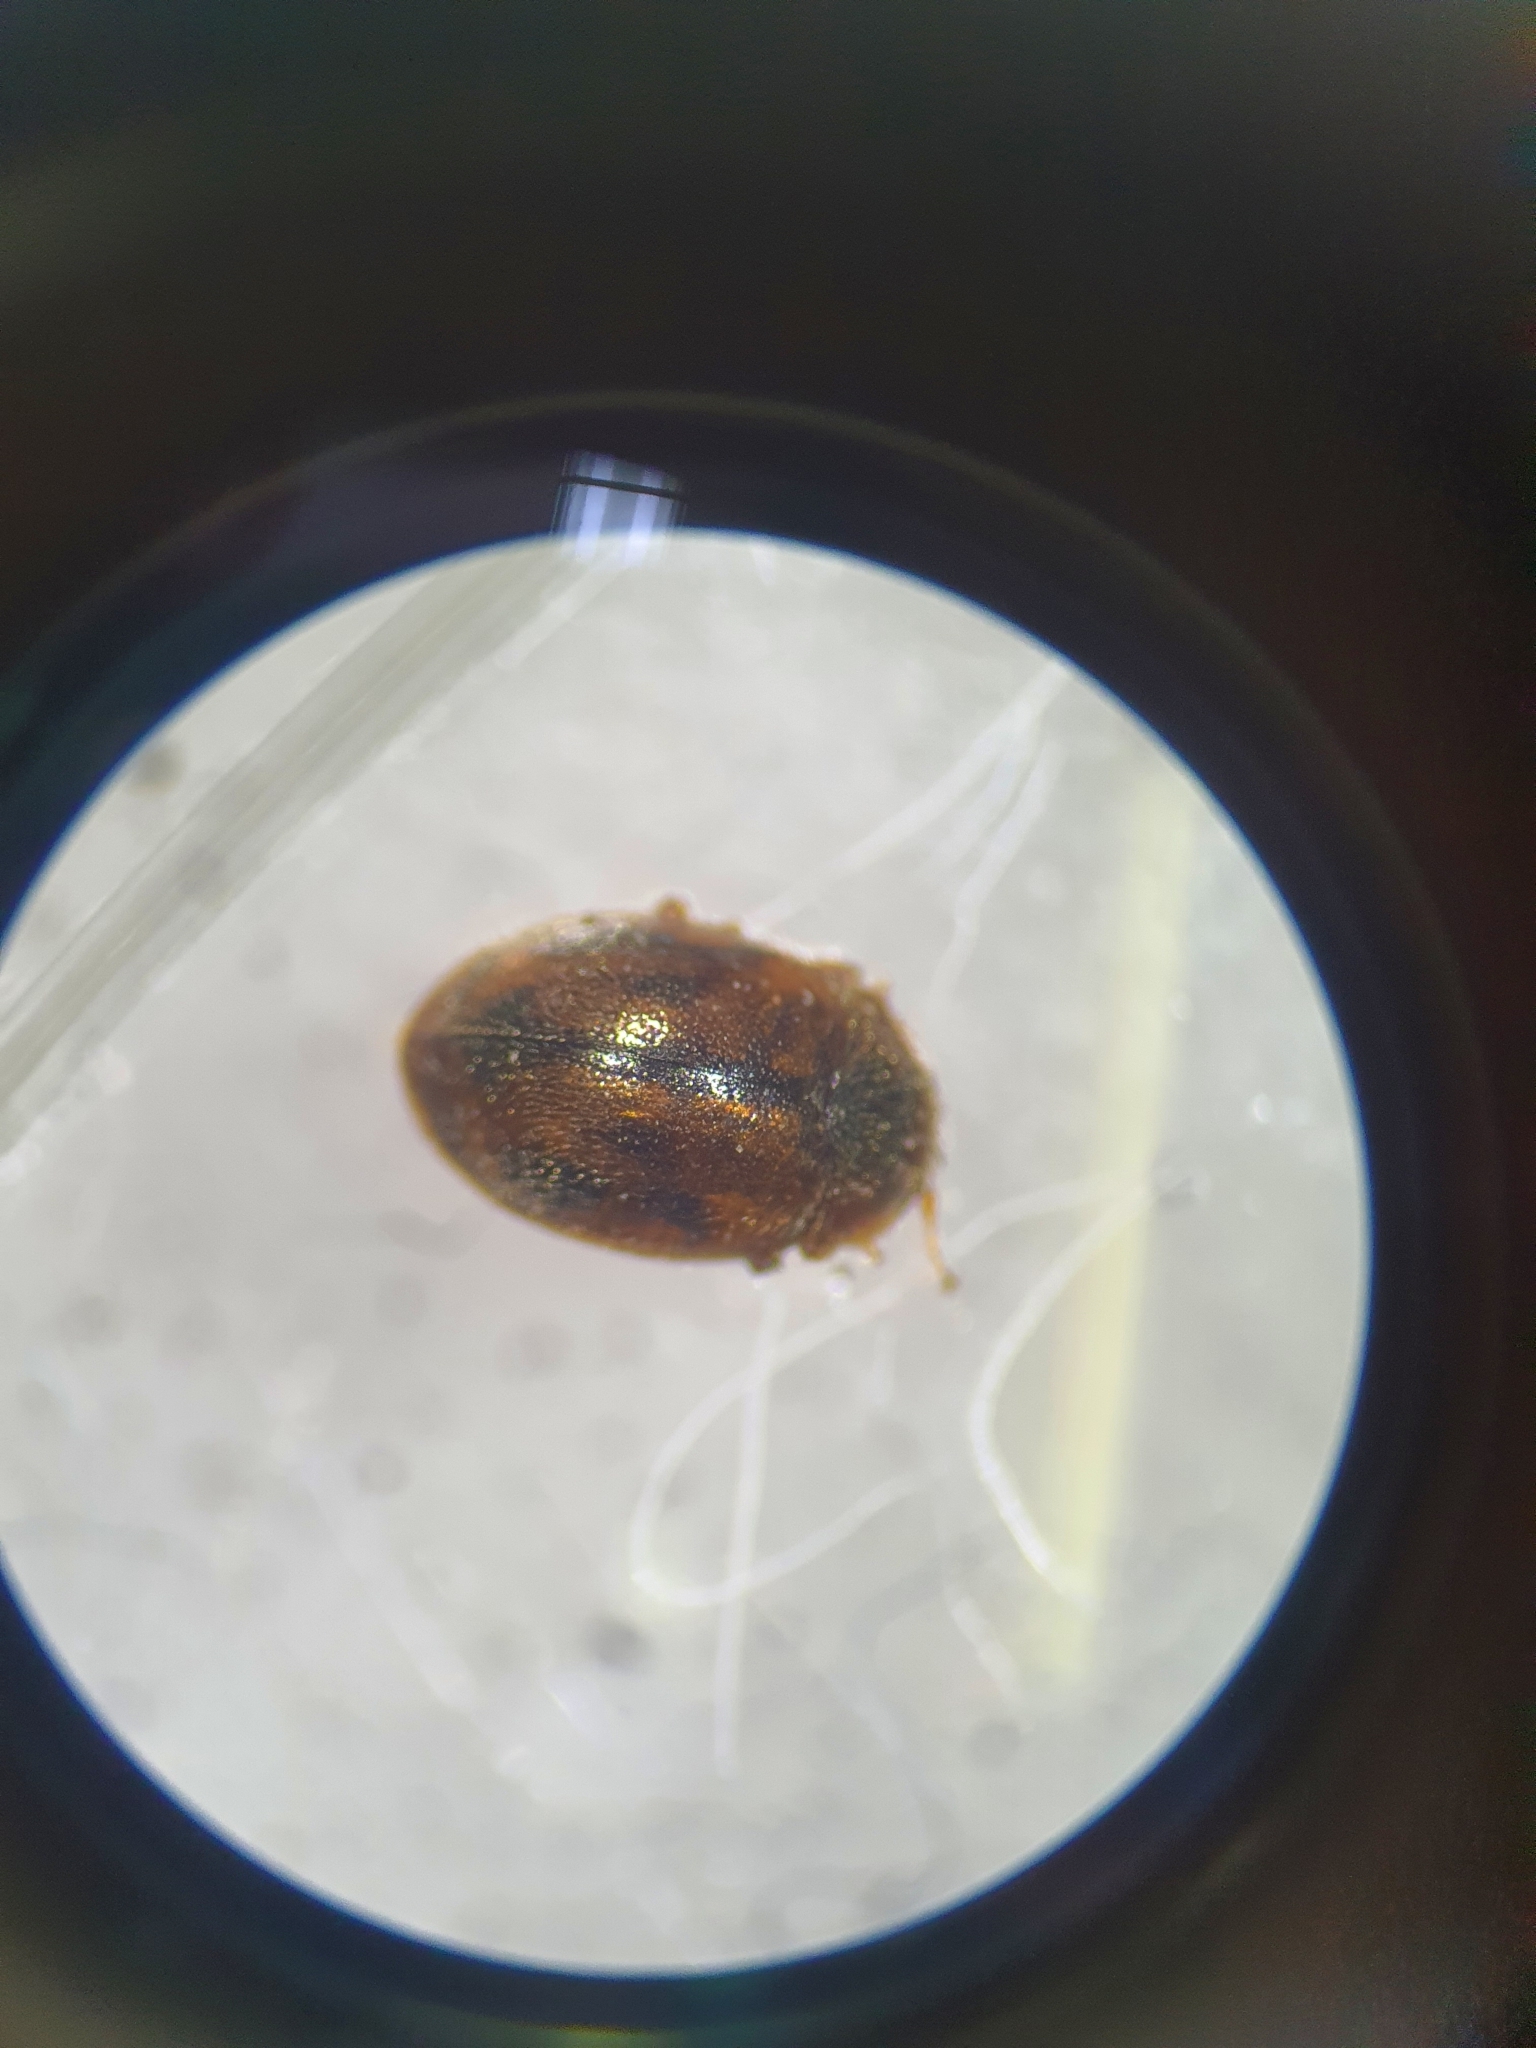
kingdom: Animalia
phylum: Arthropoda
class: Insecta
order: Coleoptera
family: Coccinellidae
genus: Rhyzobius
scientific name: Rhyzobius chrysomeloides
